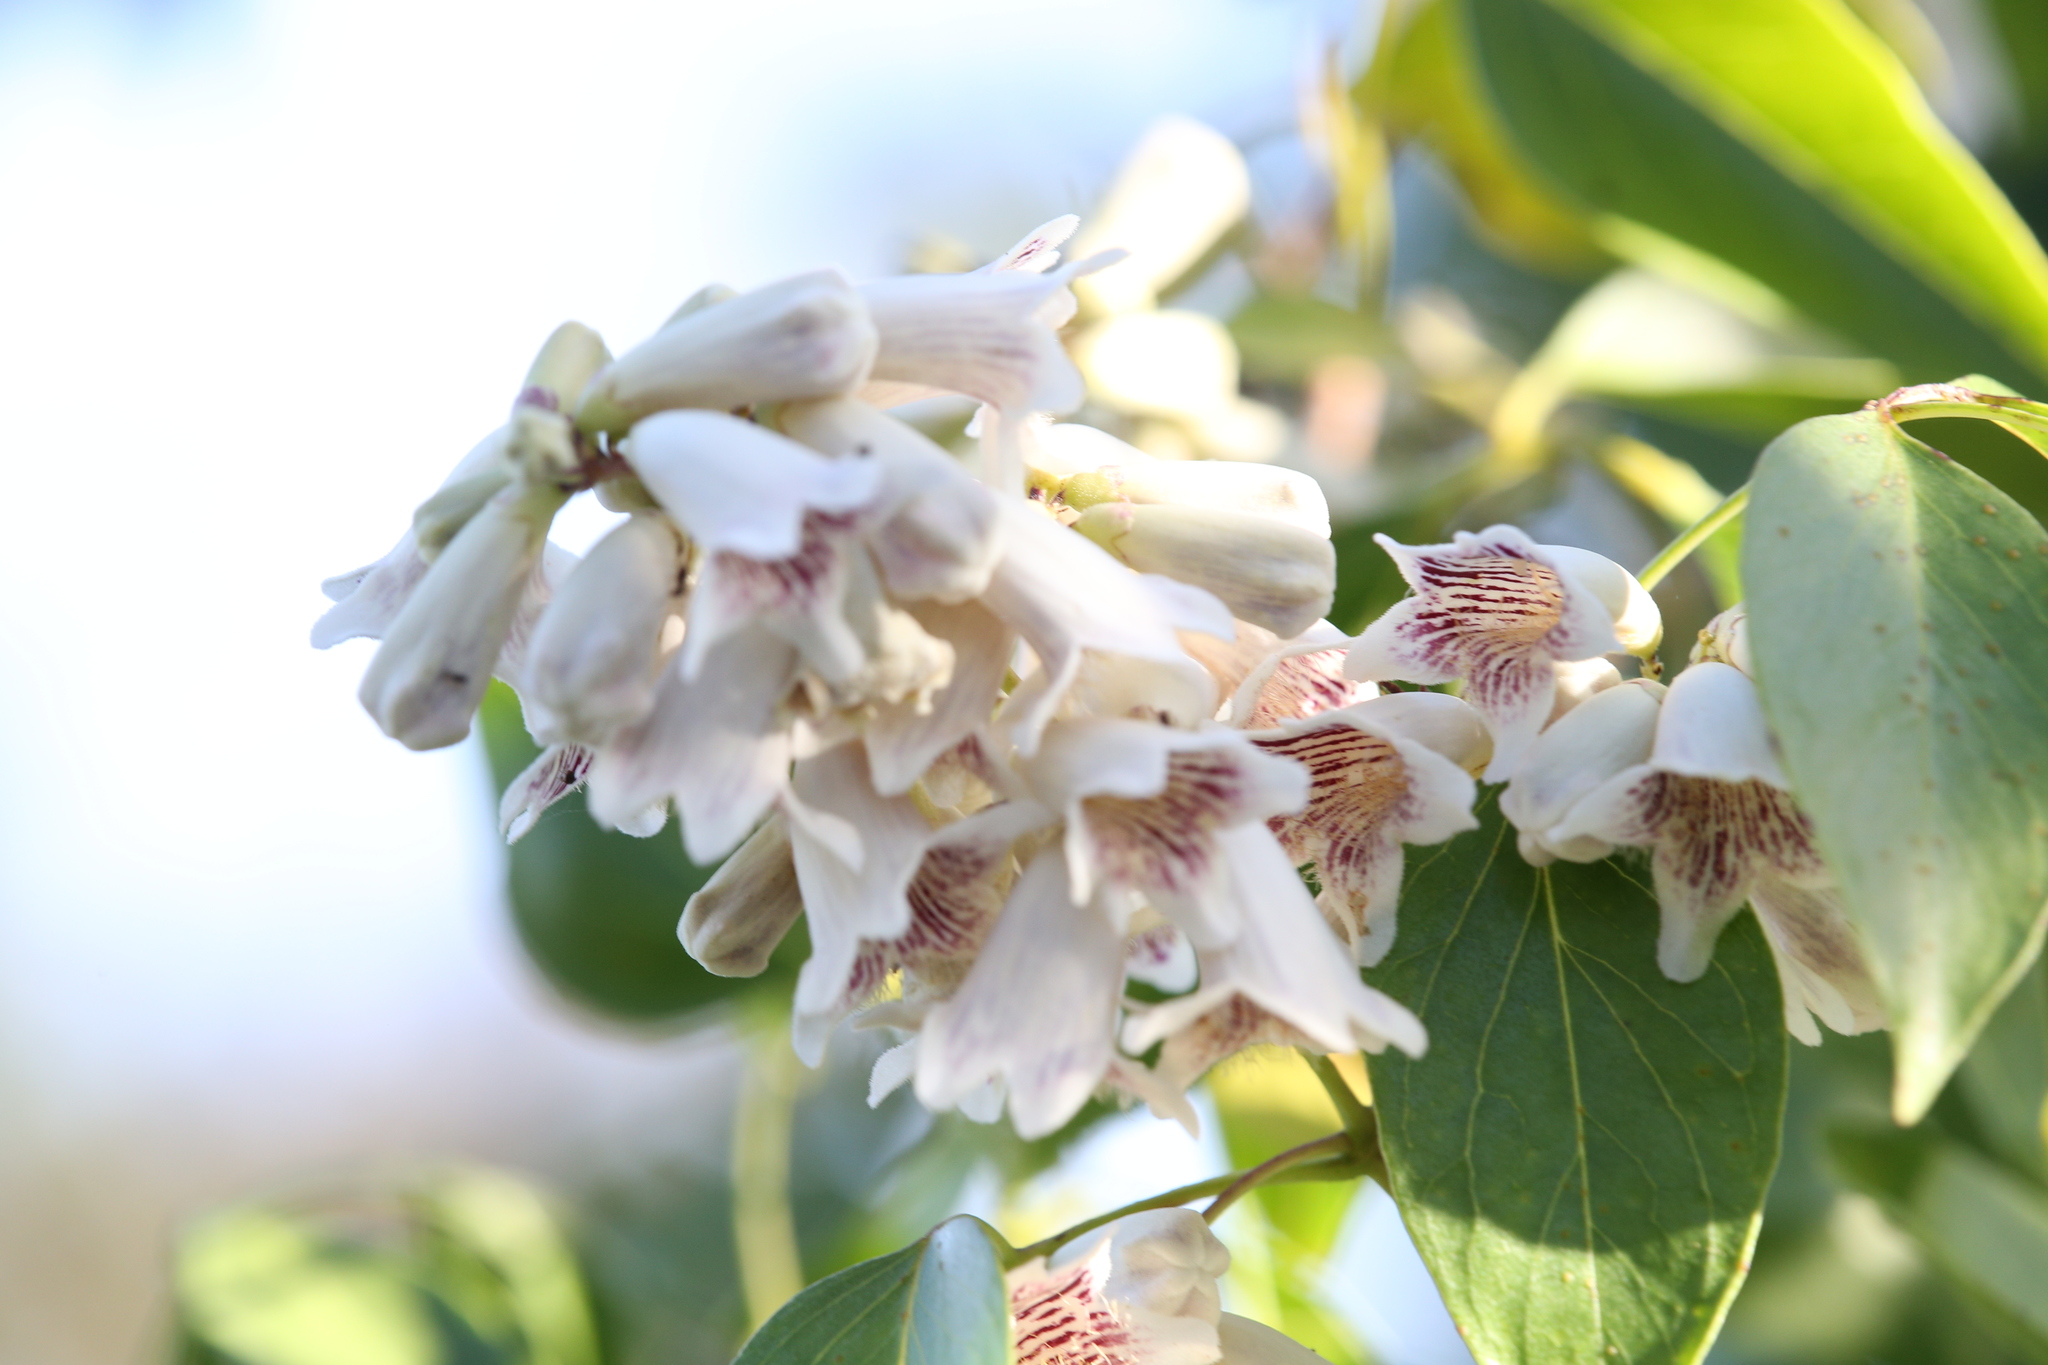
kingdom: Plantae
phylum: Tracheophyta
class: Magnoliopsida
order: Lamiales
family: Bignoniaceae
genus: Pandorea
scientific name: Pandorea pandorana
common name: Wonga-wonga-vine
